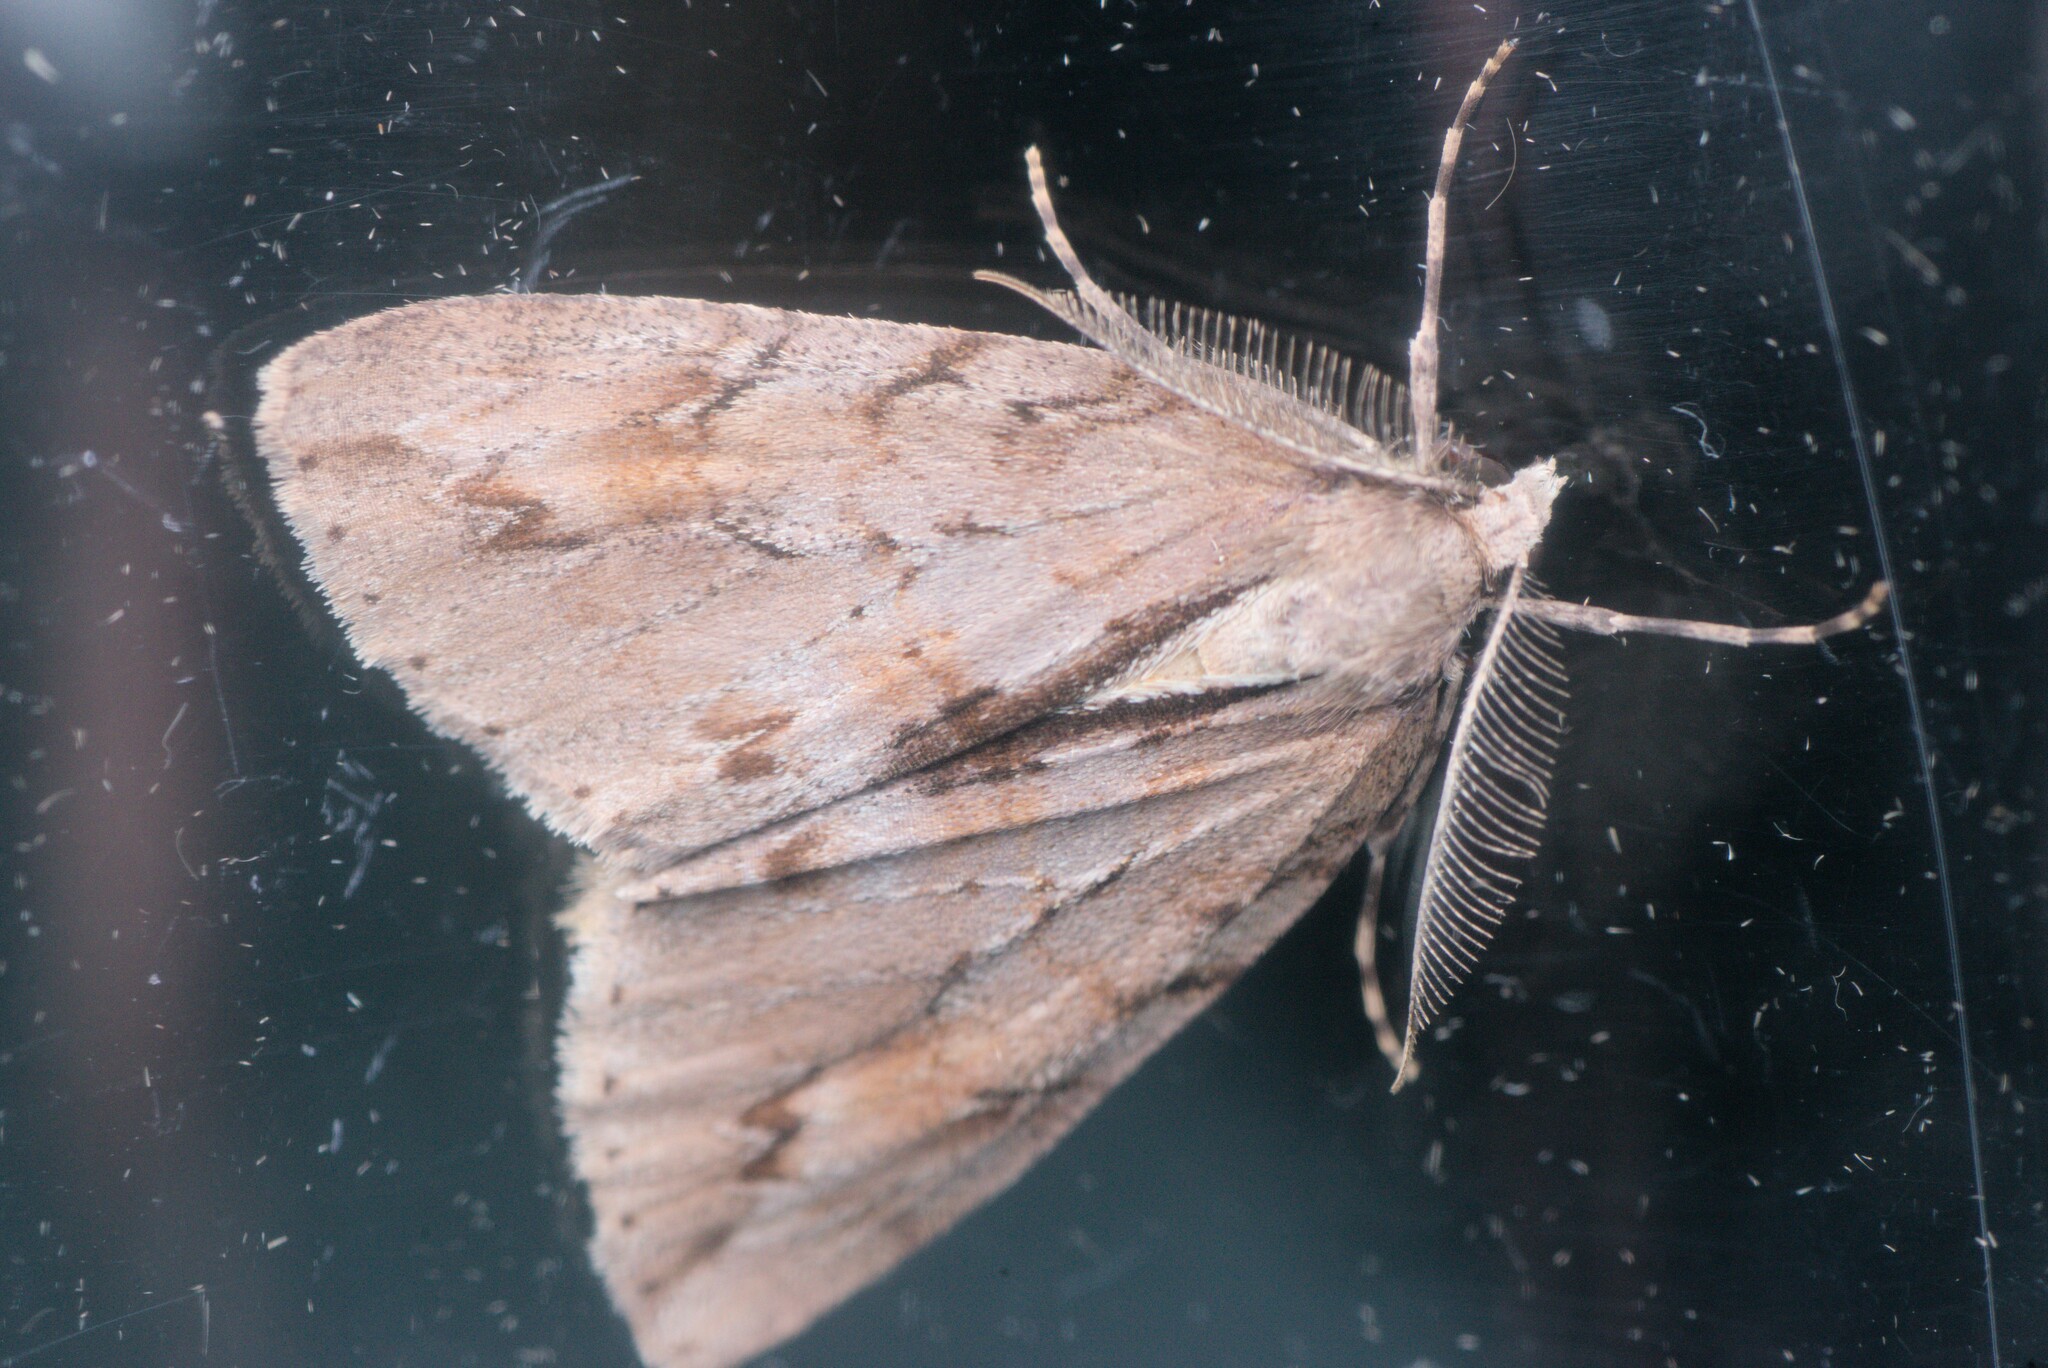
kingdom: Animalia
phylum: Arthropoda
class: Insecta
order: Lepidoptera
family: Geometridae
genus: Pseudocoremia
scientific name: Pseudocoremia lupinata
